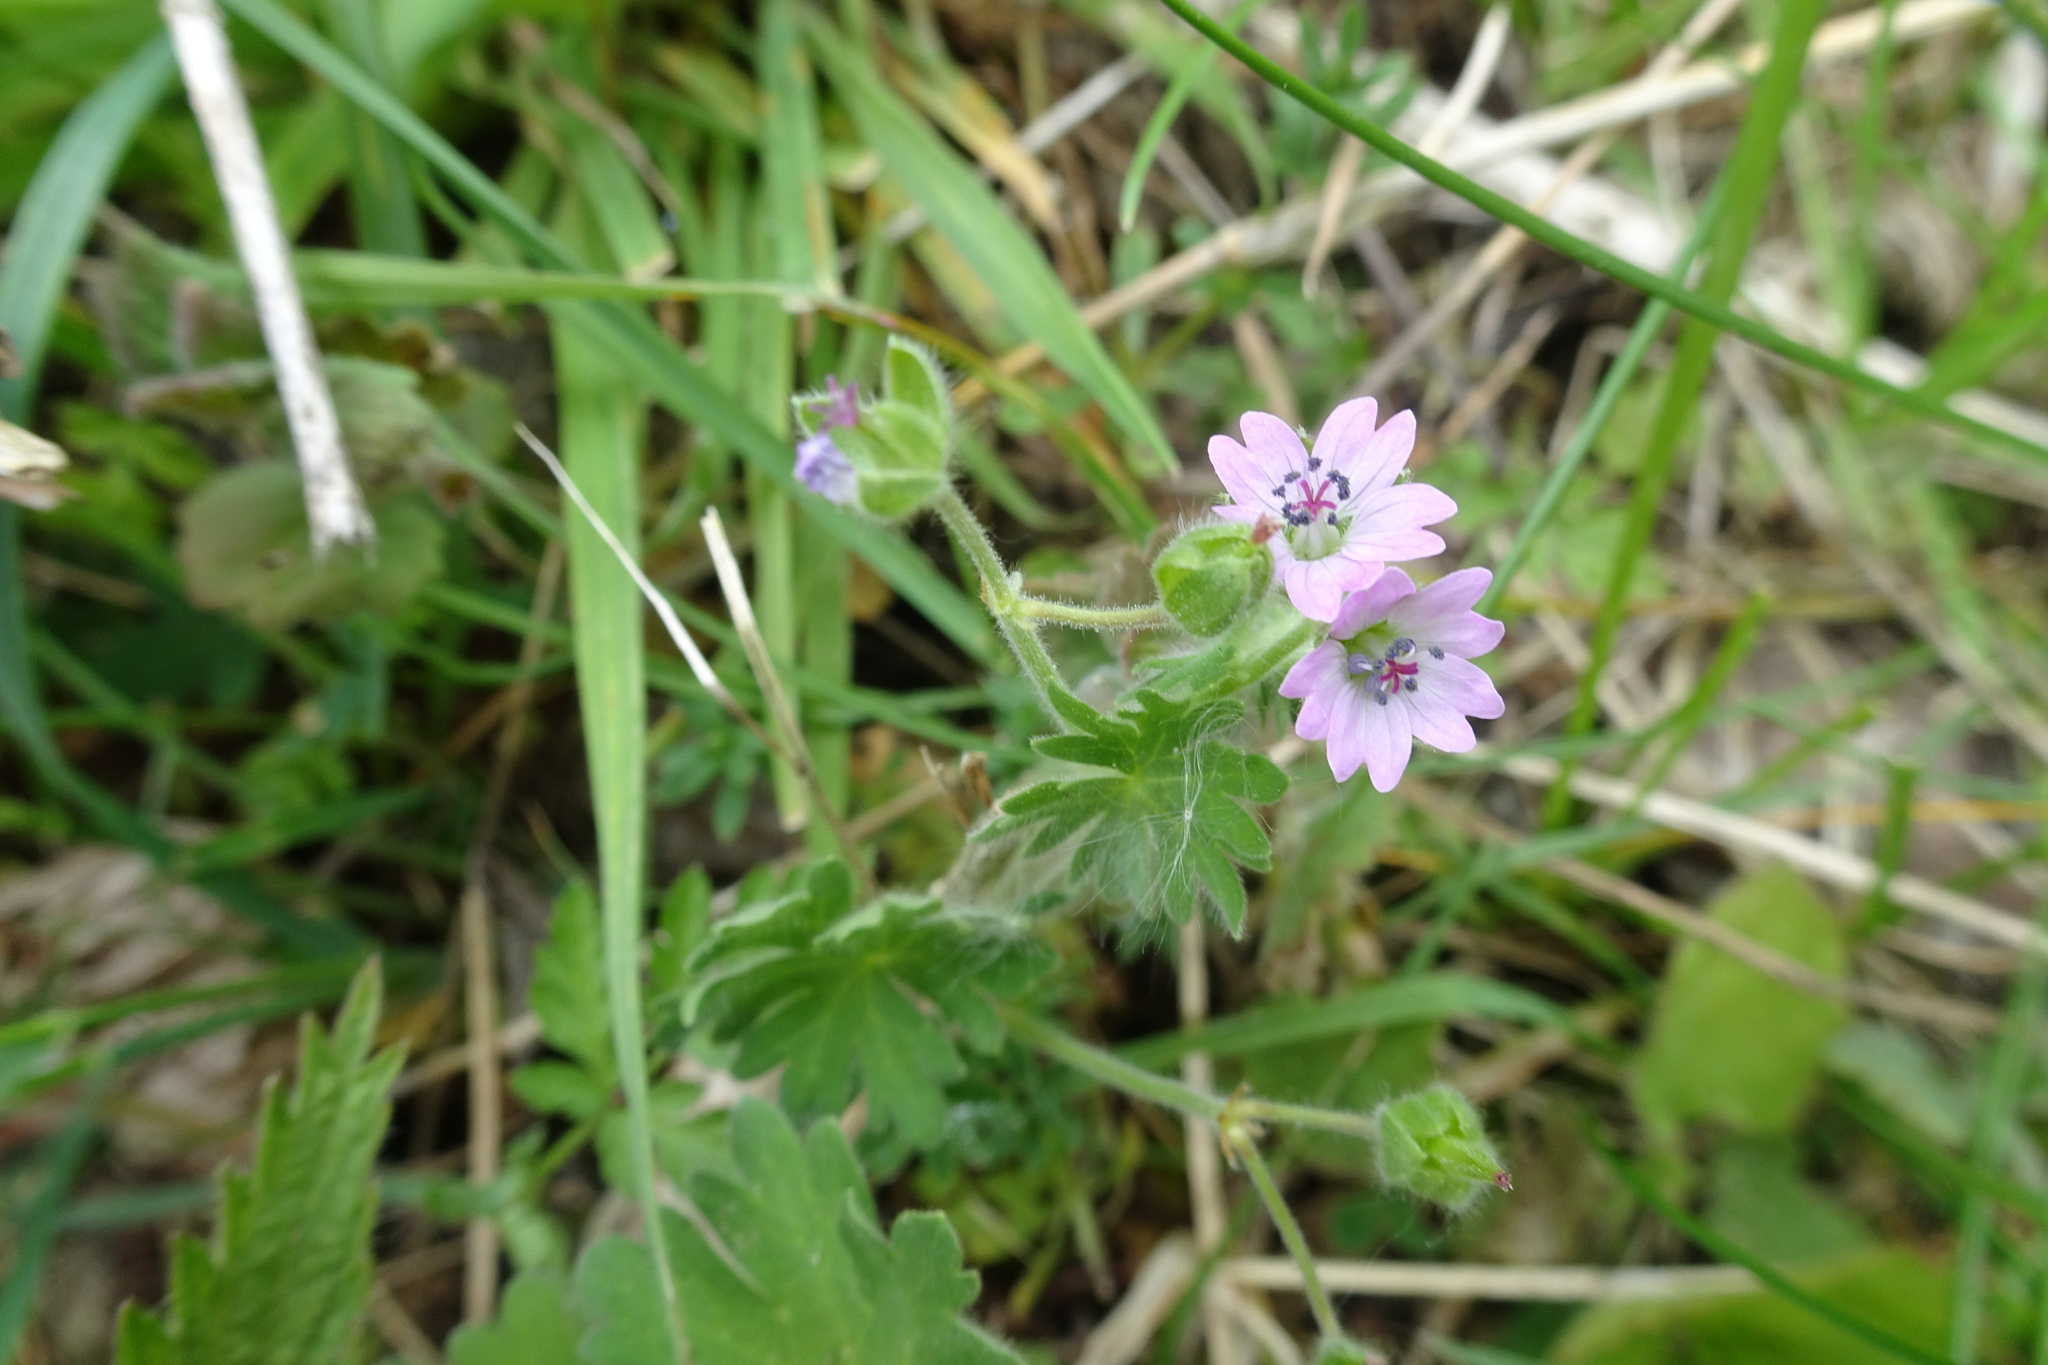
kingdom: Plantae
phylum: Tracheophyta
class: Magnoliopsida
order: Geraniales
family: Geraniaceae
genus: Geranium
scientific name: Geranium molle
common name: Dove's-foot crane's-bill
